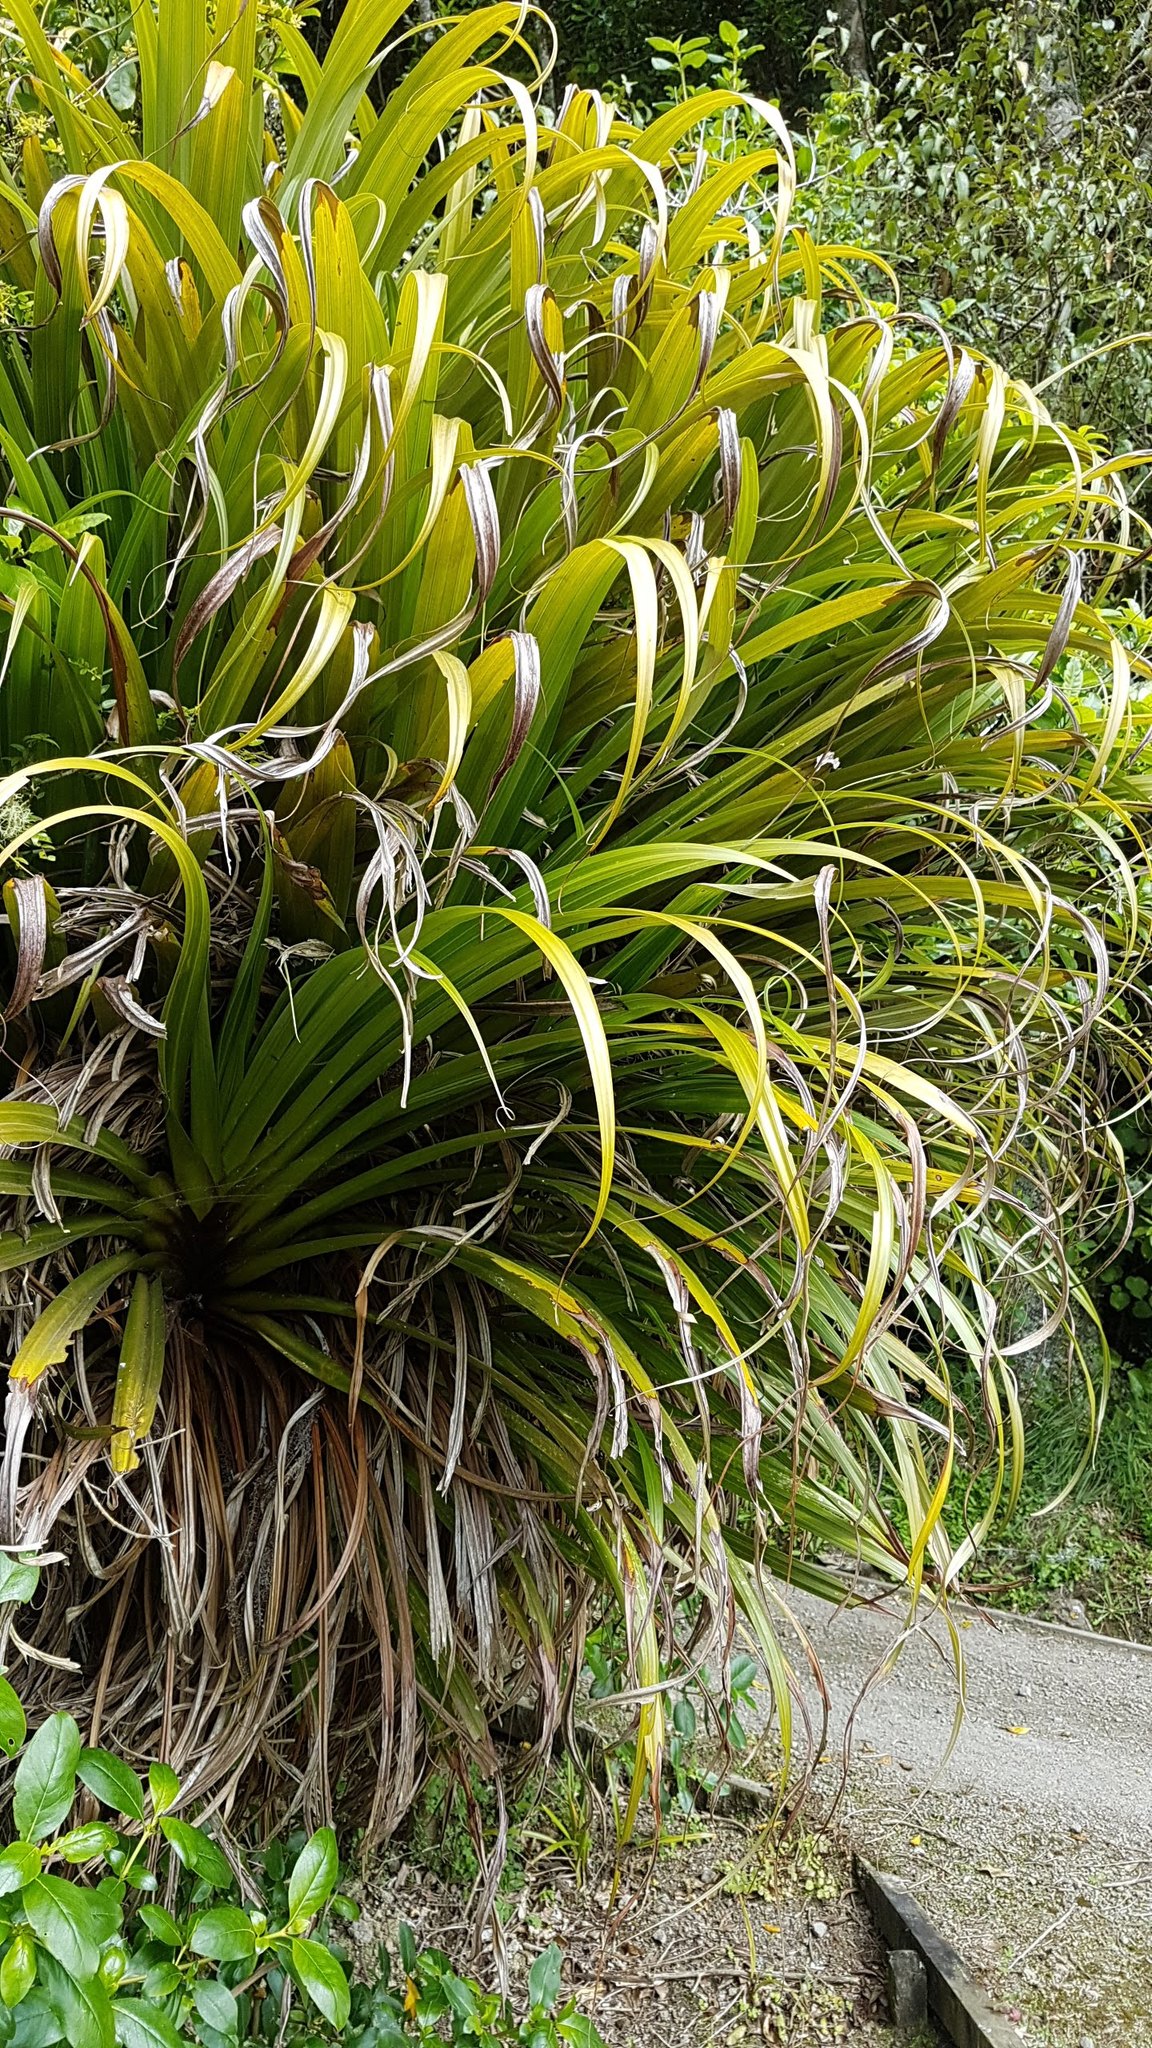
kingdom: Plantae
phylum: Tracheophyta
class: Liliopsida
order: Asparagales
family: Asteliaceae
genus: Astelia
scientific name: Astelia hastata
